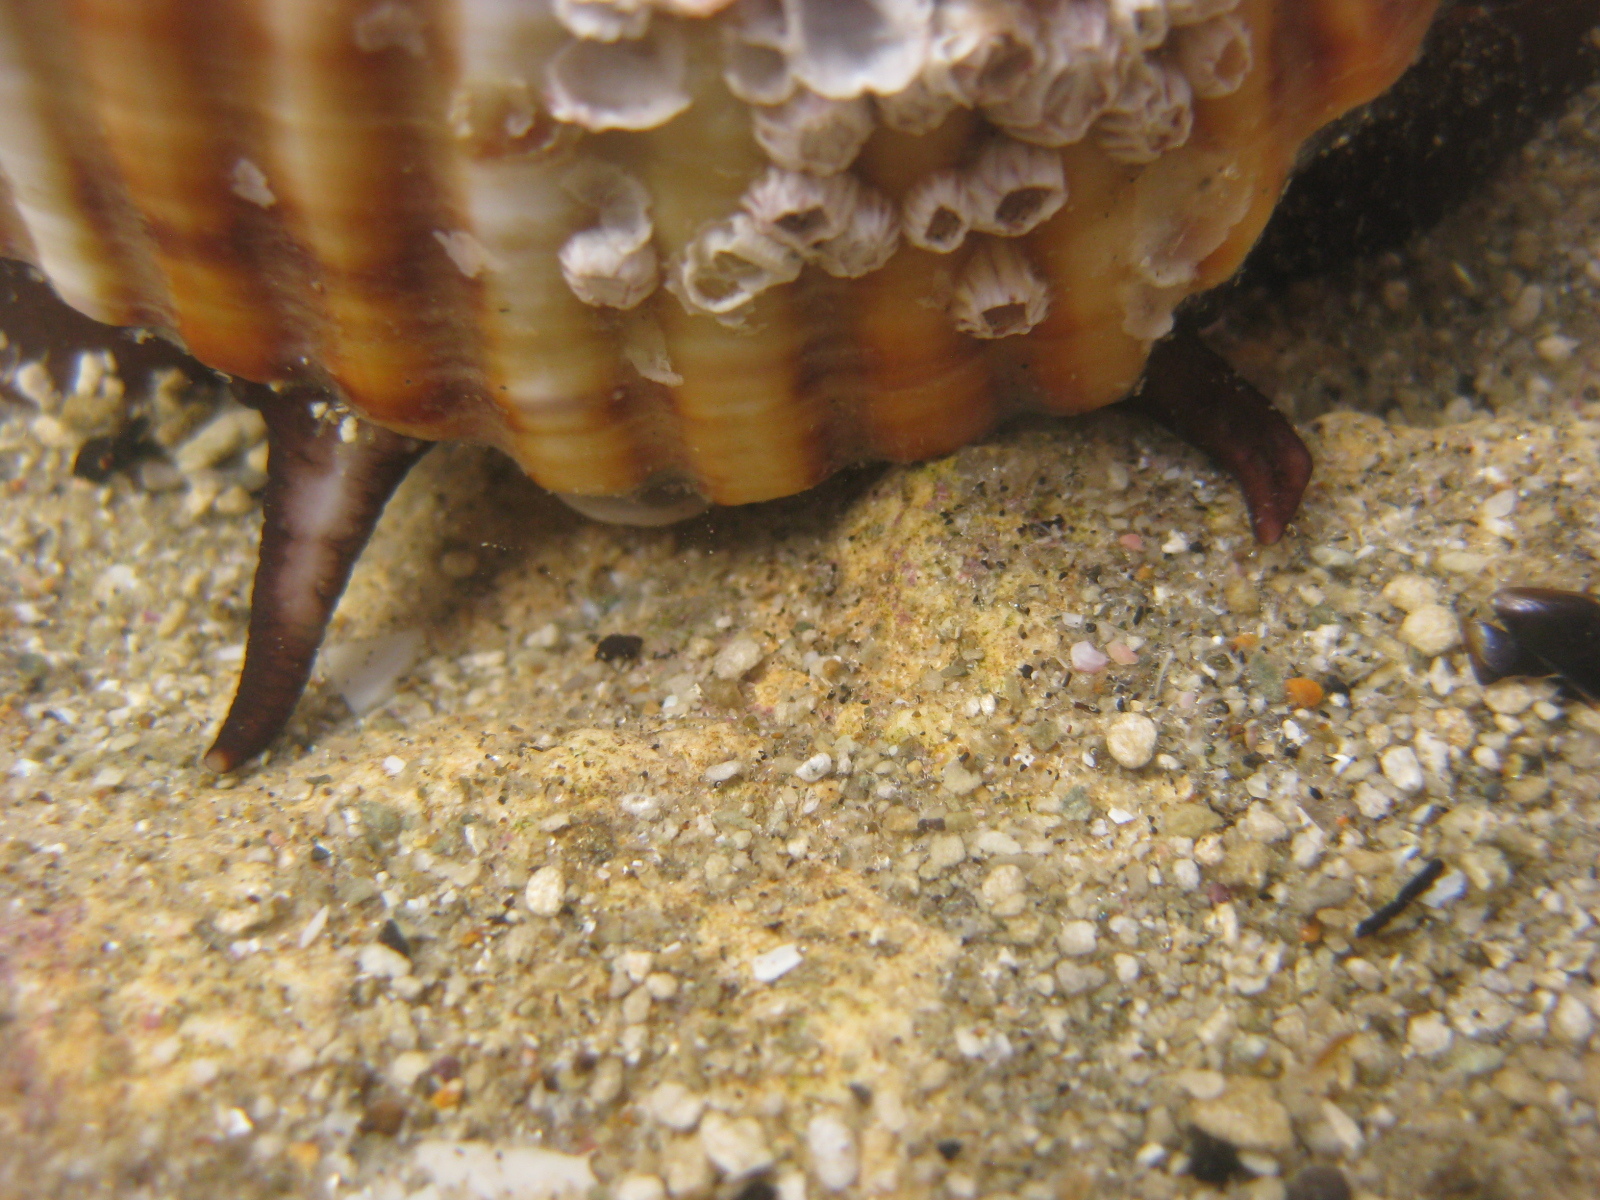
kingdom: Animalia
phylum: Arthropoda
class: Maxillopoda
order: Sessilia
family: Balanidae
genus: Balanus
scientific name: Balanus trigonus
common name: Triangle barnacle
